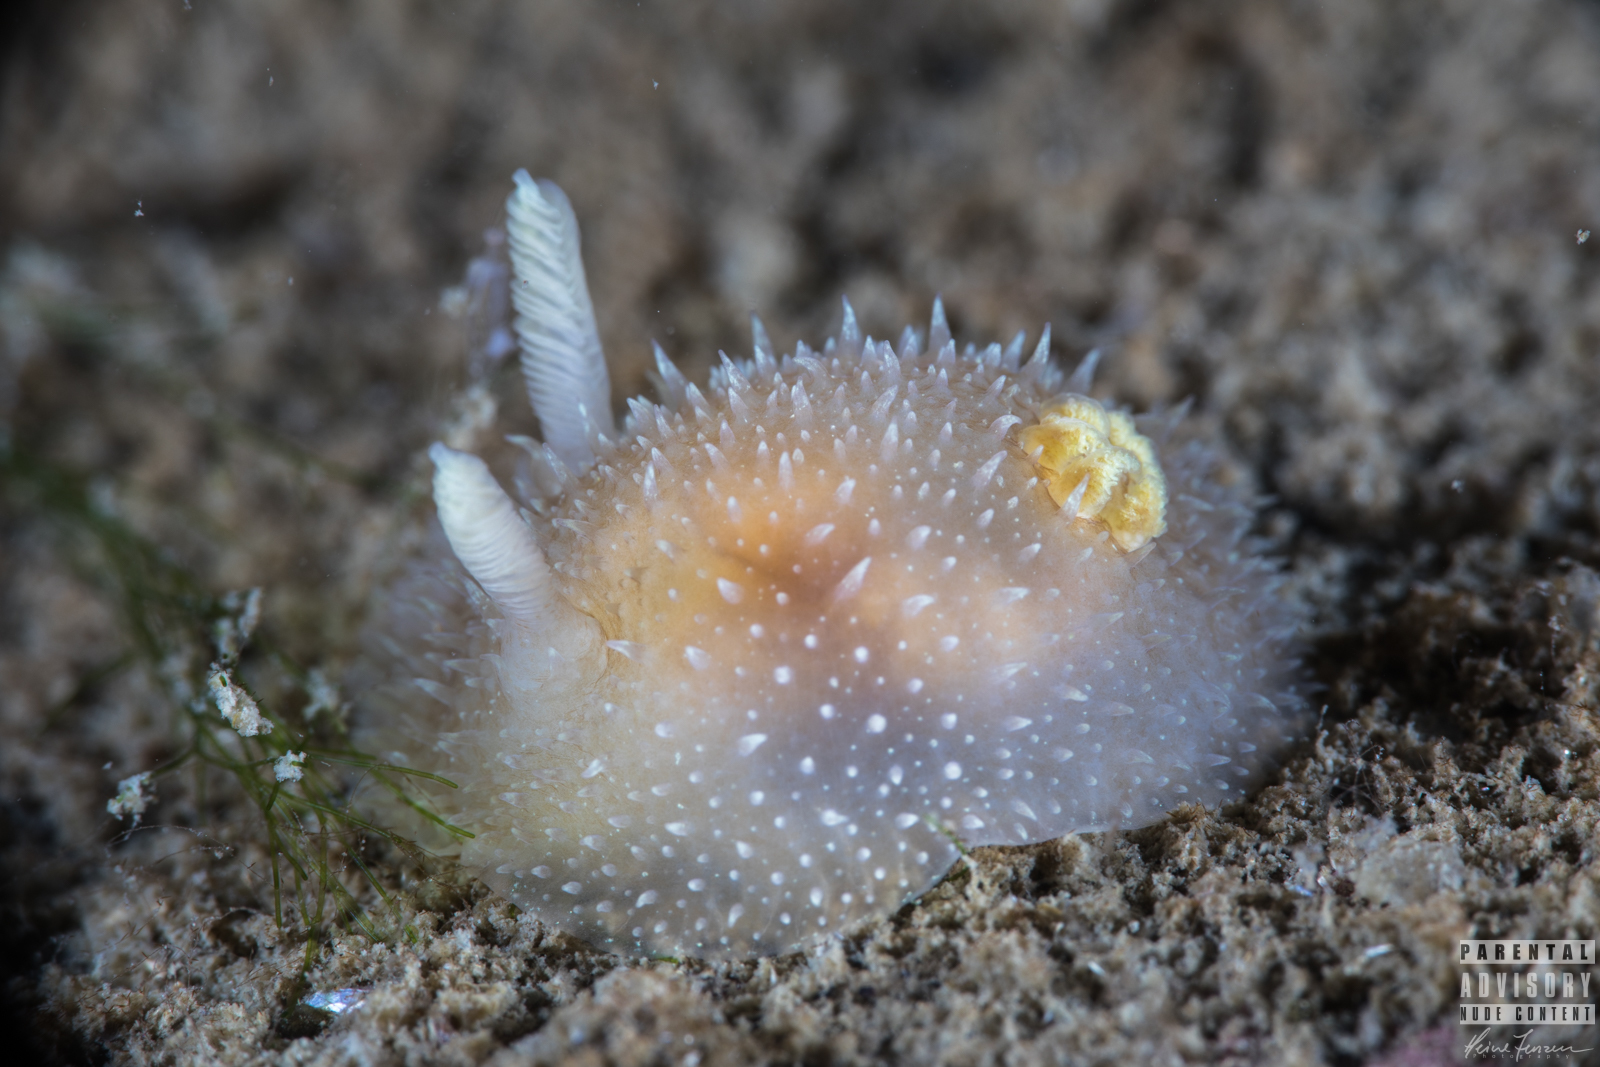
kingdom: Animalia
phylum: Mollusca
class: Gastropoda
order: Nudibranchia
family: Onchidorididae
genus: Acanthodoris
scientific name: Acanthodoris pilosa
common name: Hairy spiny doris
